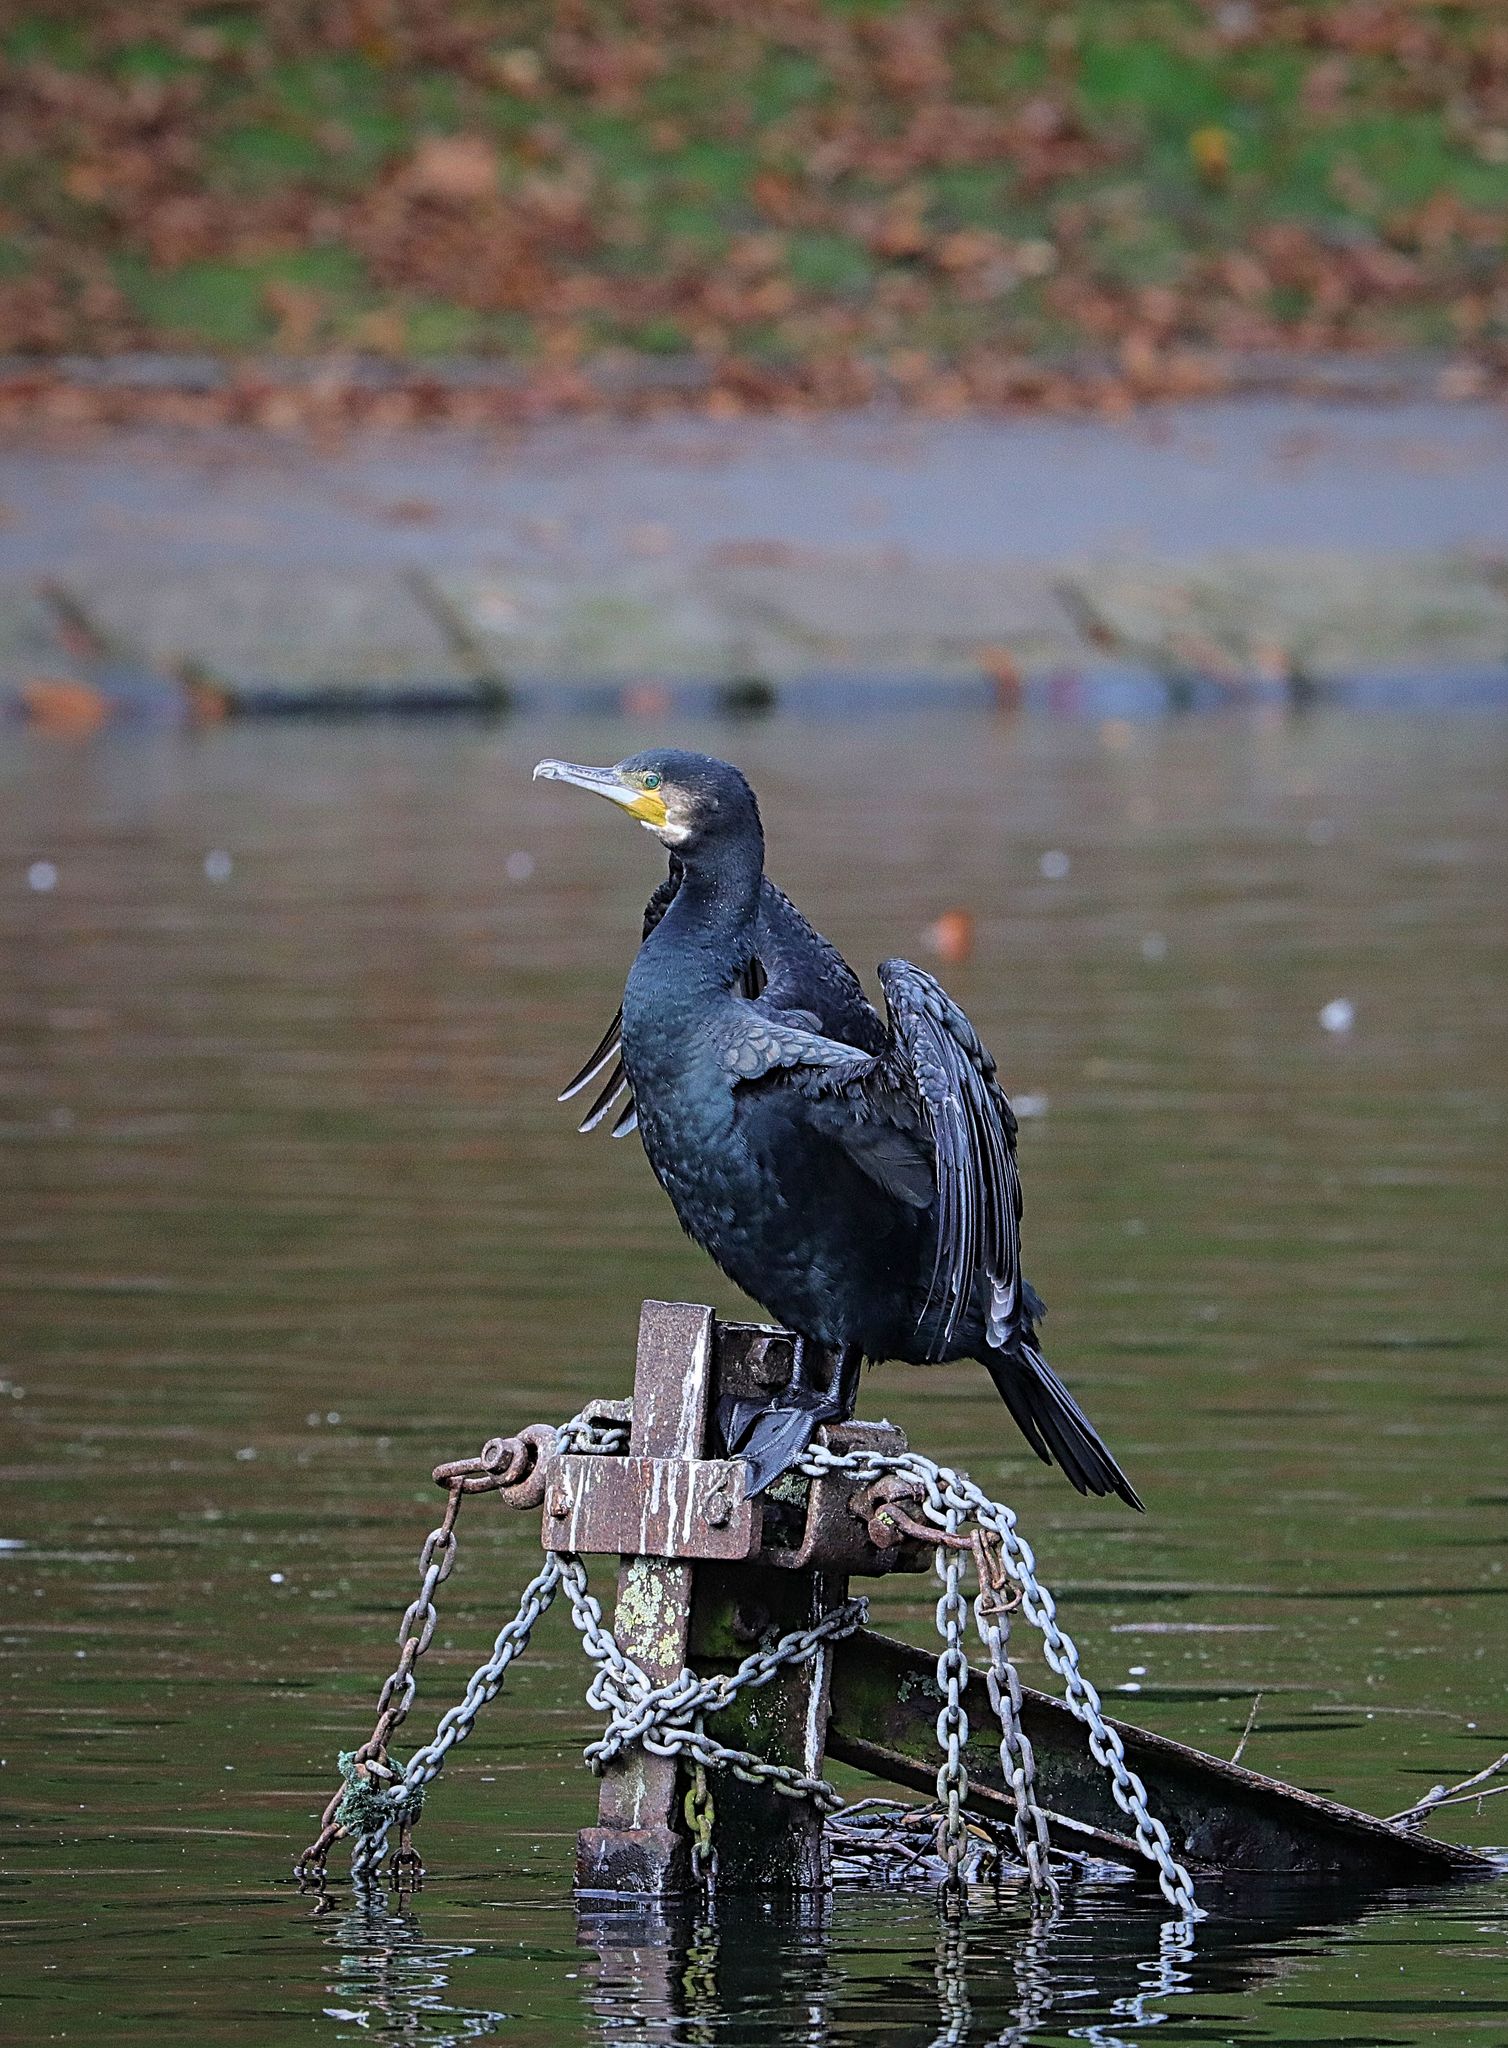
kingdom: Animalia
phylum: Chordata
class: Aves
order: Suliformes
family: Phalacrocoracidae
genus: Phalacrocorax
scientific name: Phalacrocorax carbo
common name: Great cormorant
